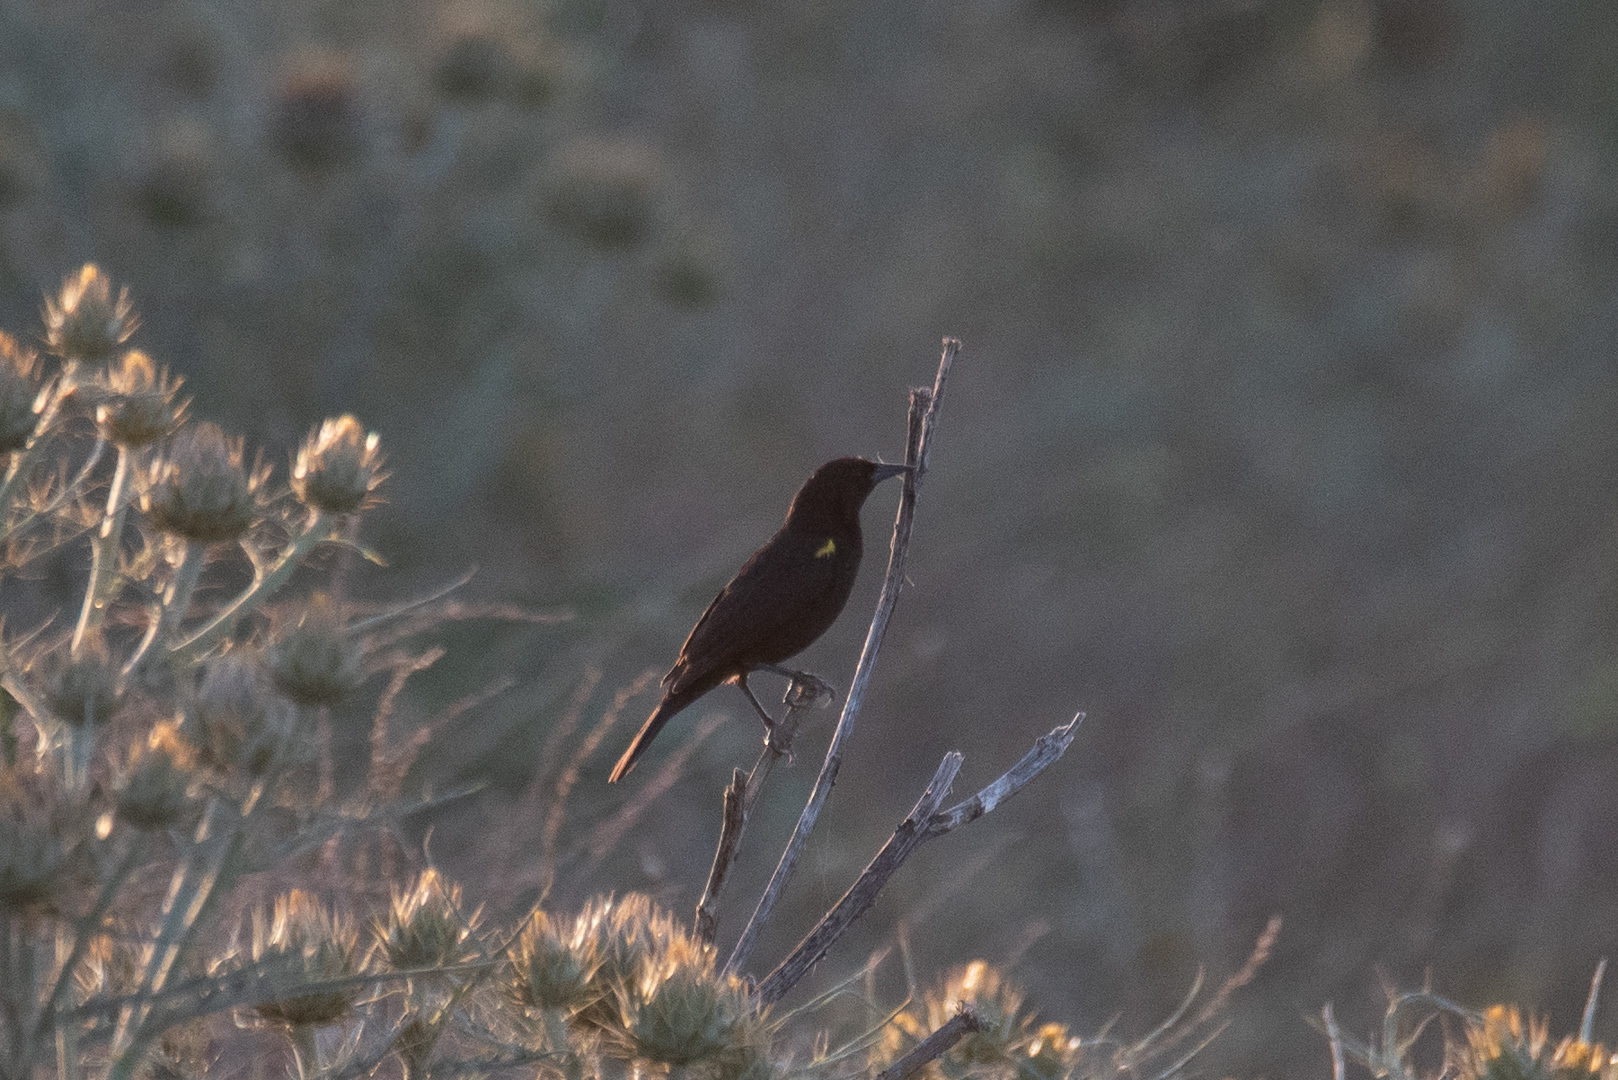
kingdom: Animalia
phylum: Chordata
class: Aves
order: Passeriformes
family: Icteridae
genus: Agelasticus
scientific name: Agelasticus thilius
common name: Yellow-winged blackbird
